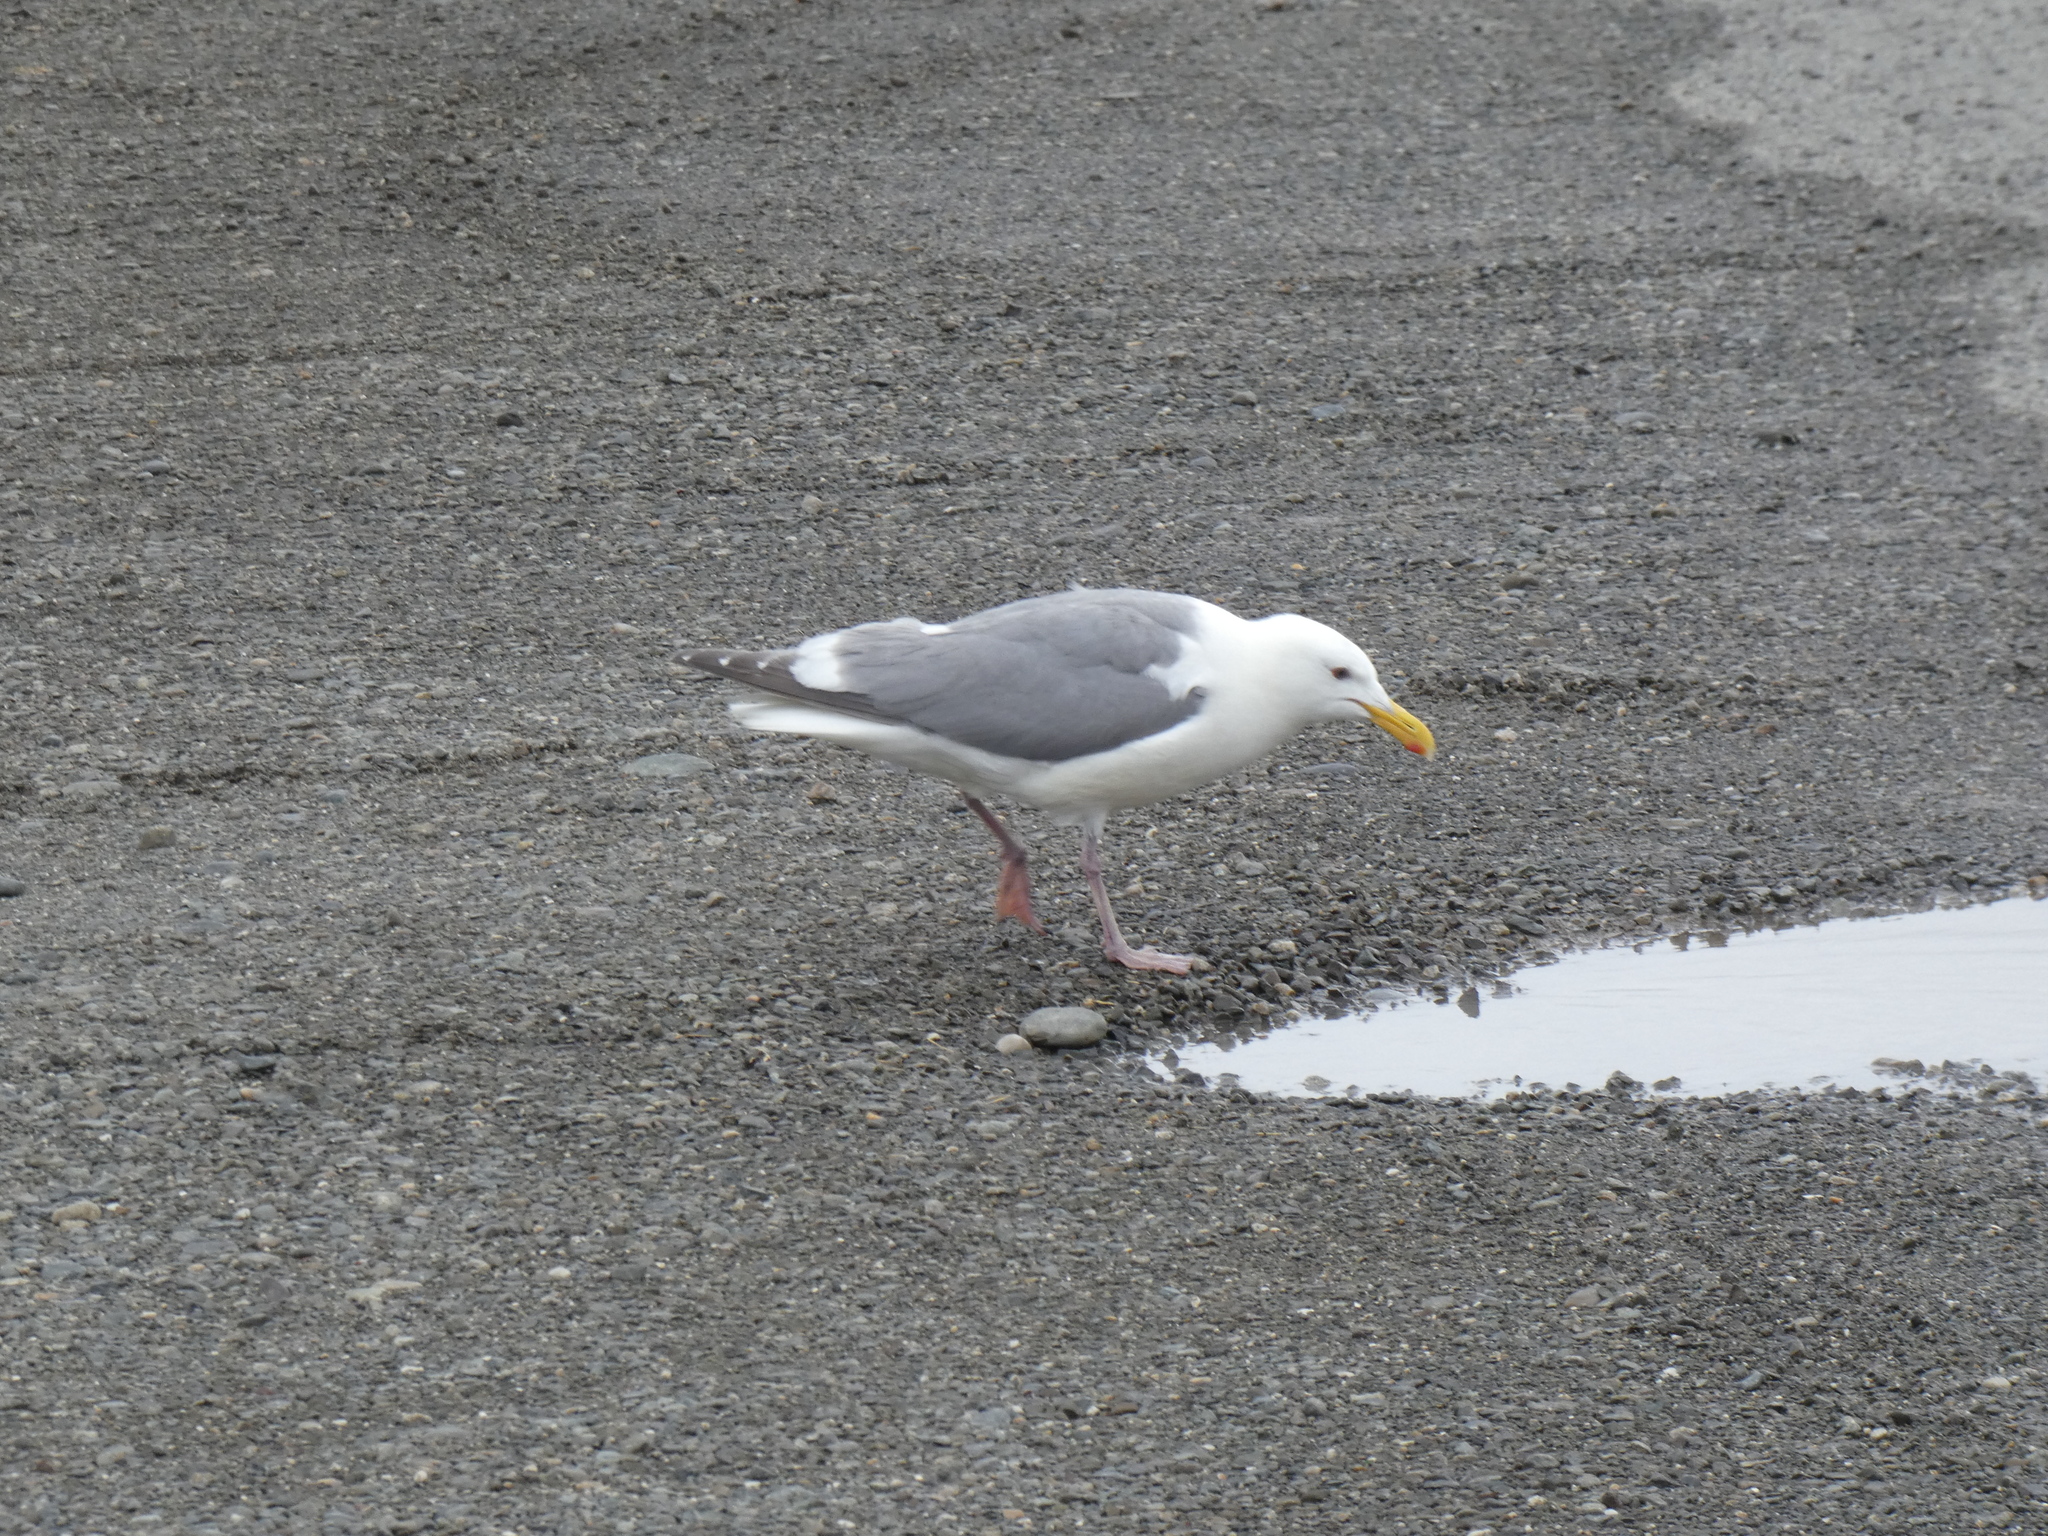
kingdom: Animalia
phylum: Chordata
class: Aves
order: Charadriiformes
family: Laridae
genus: Larus
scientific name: Larus
